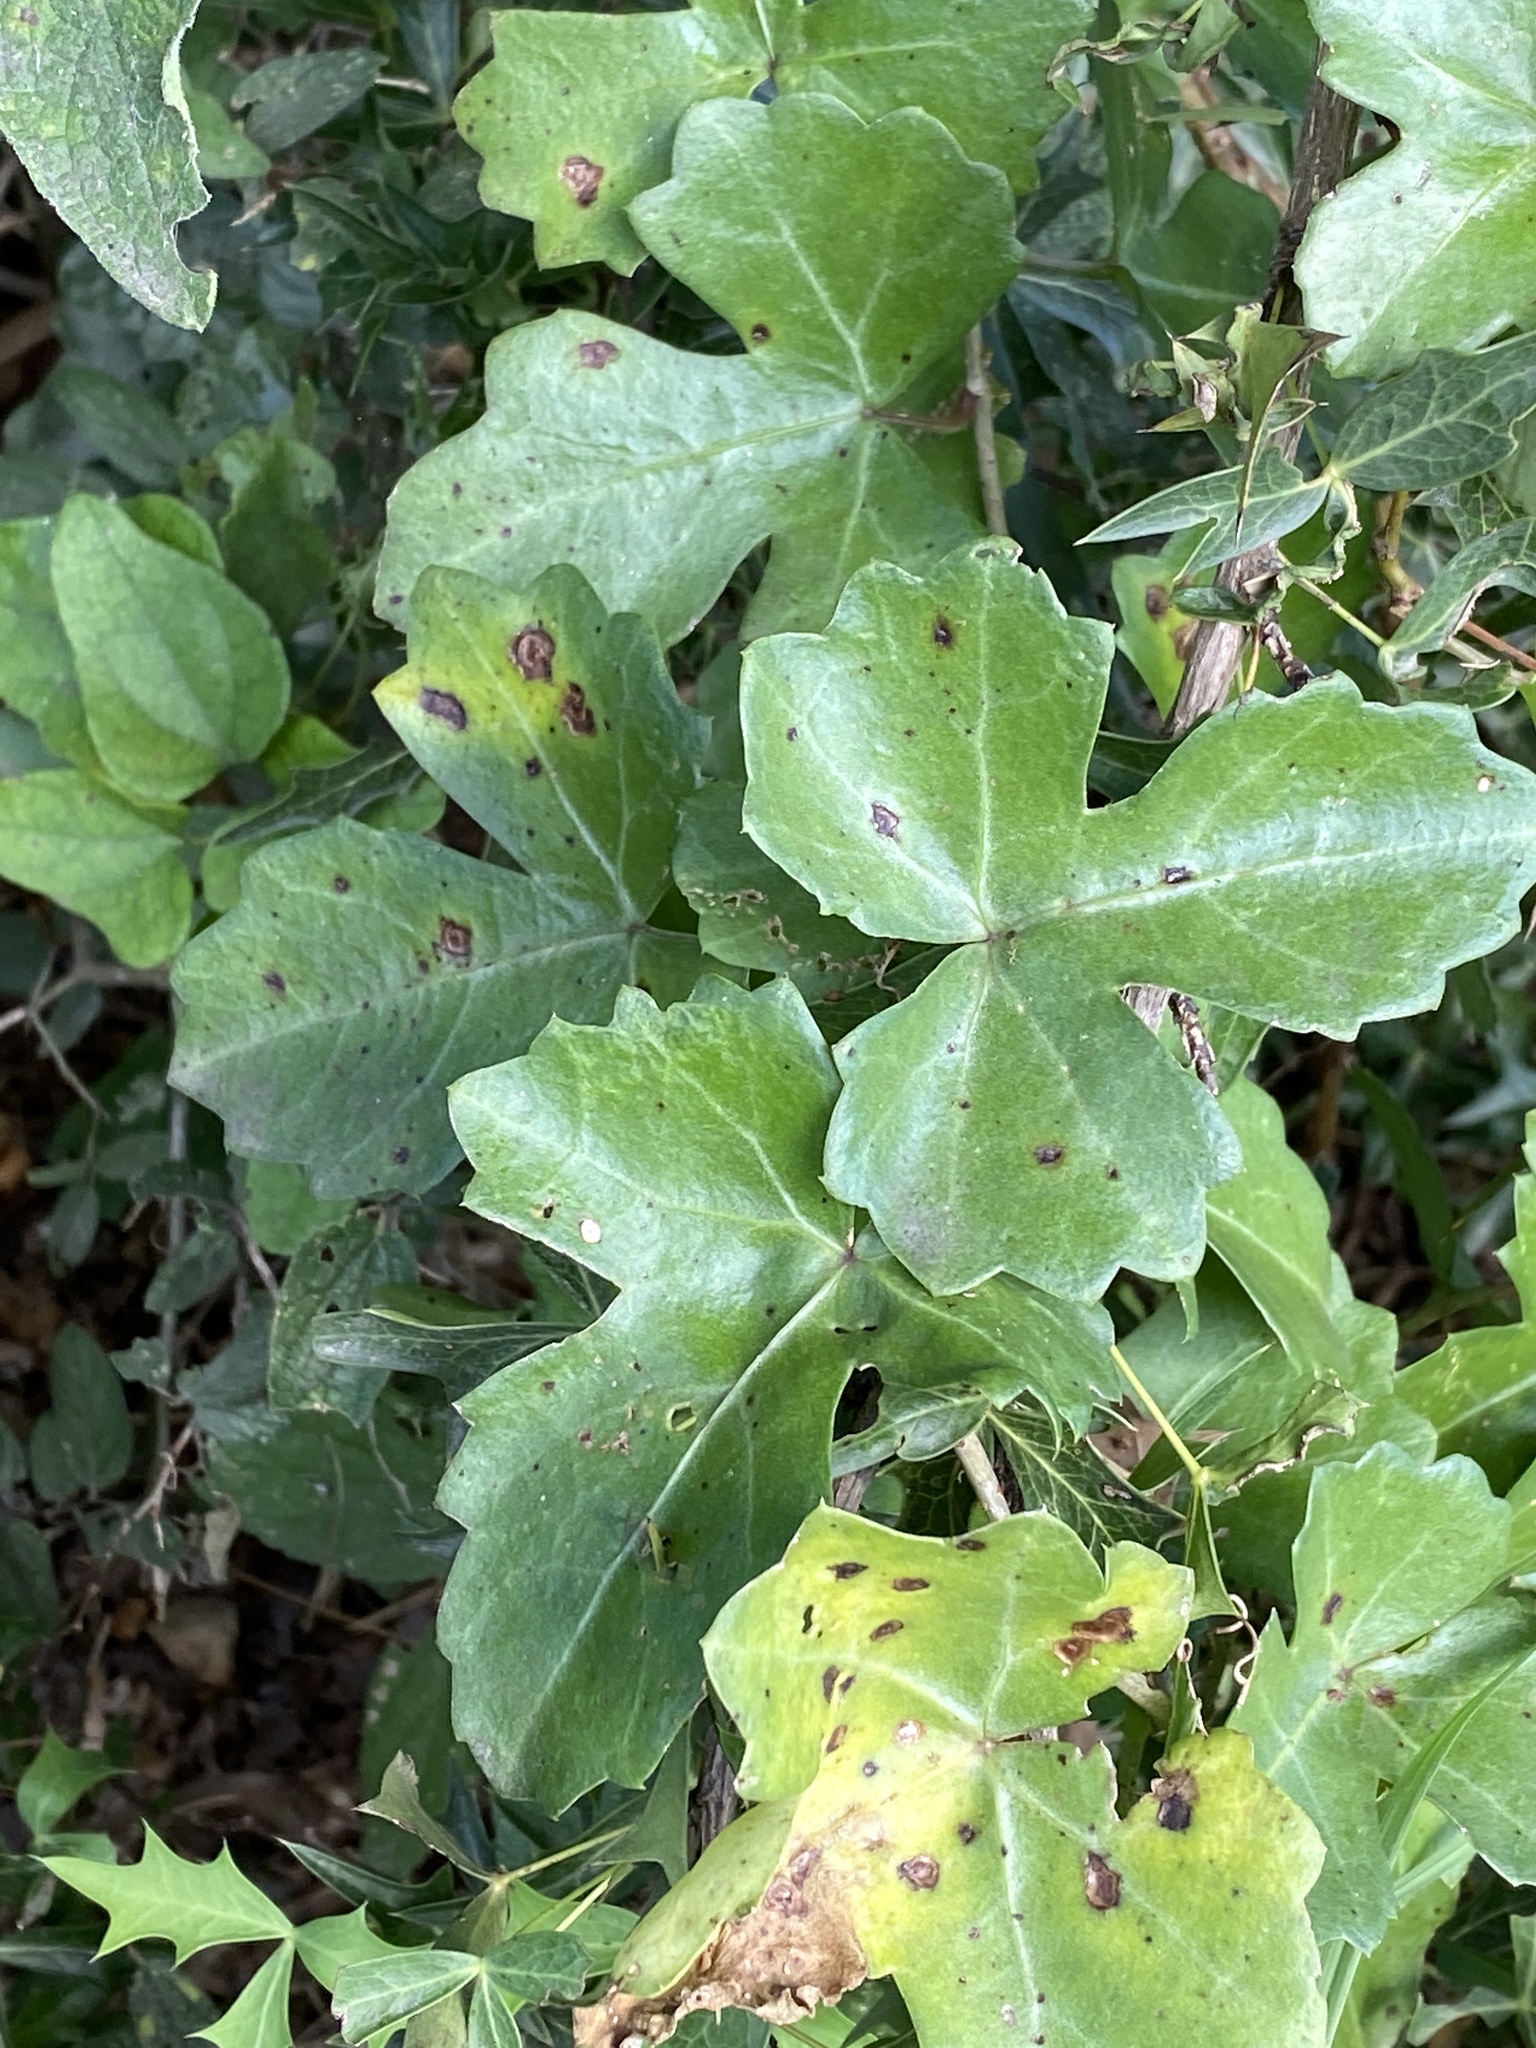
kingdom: Plantae
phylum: Tracheophyta
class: Magnoliopsida
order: Vitales
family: Vitaceae
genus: Cissus
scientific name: Cissus trifoliata
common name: Vine-sorrel
